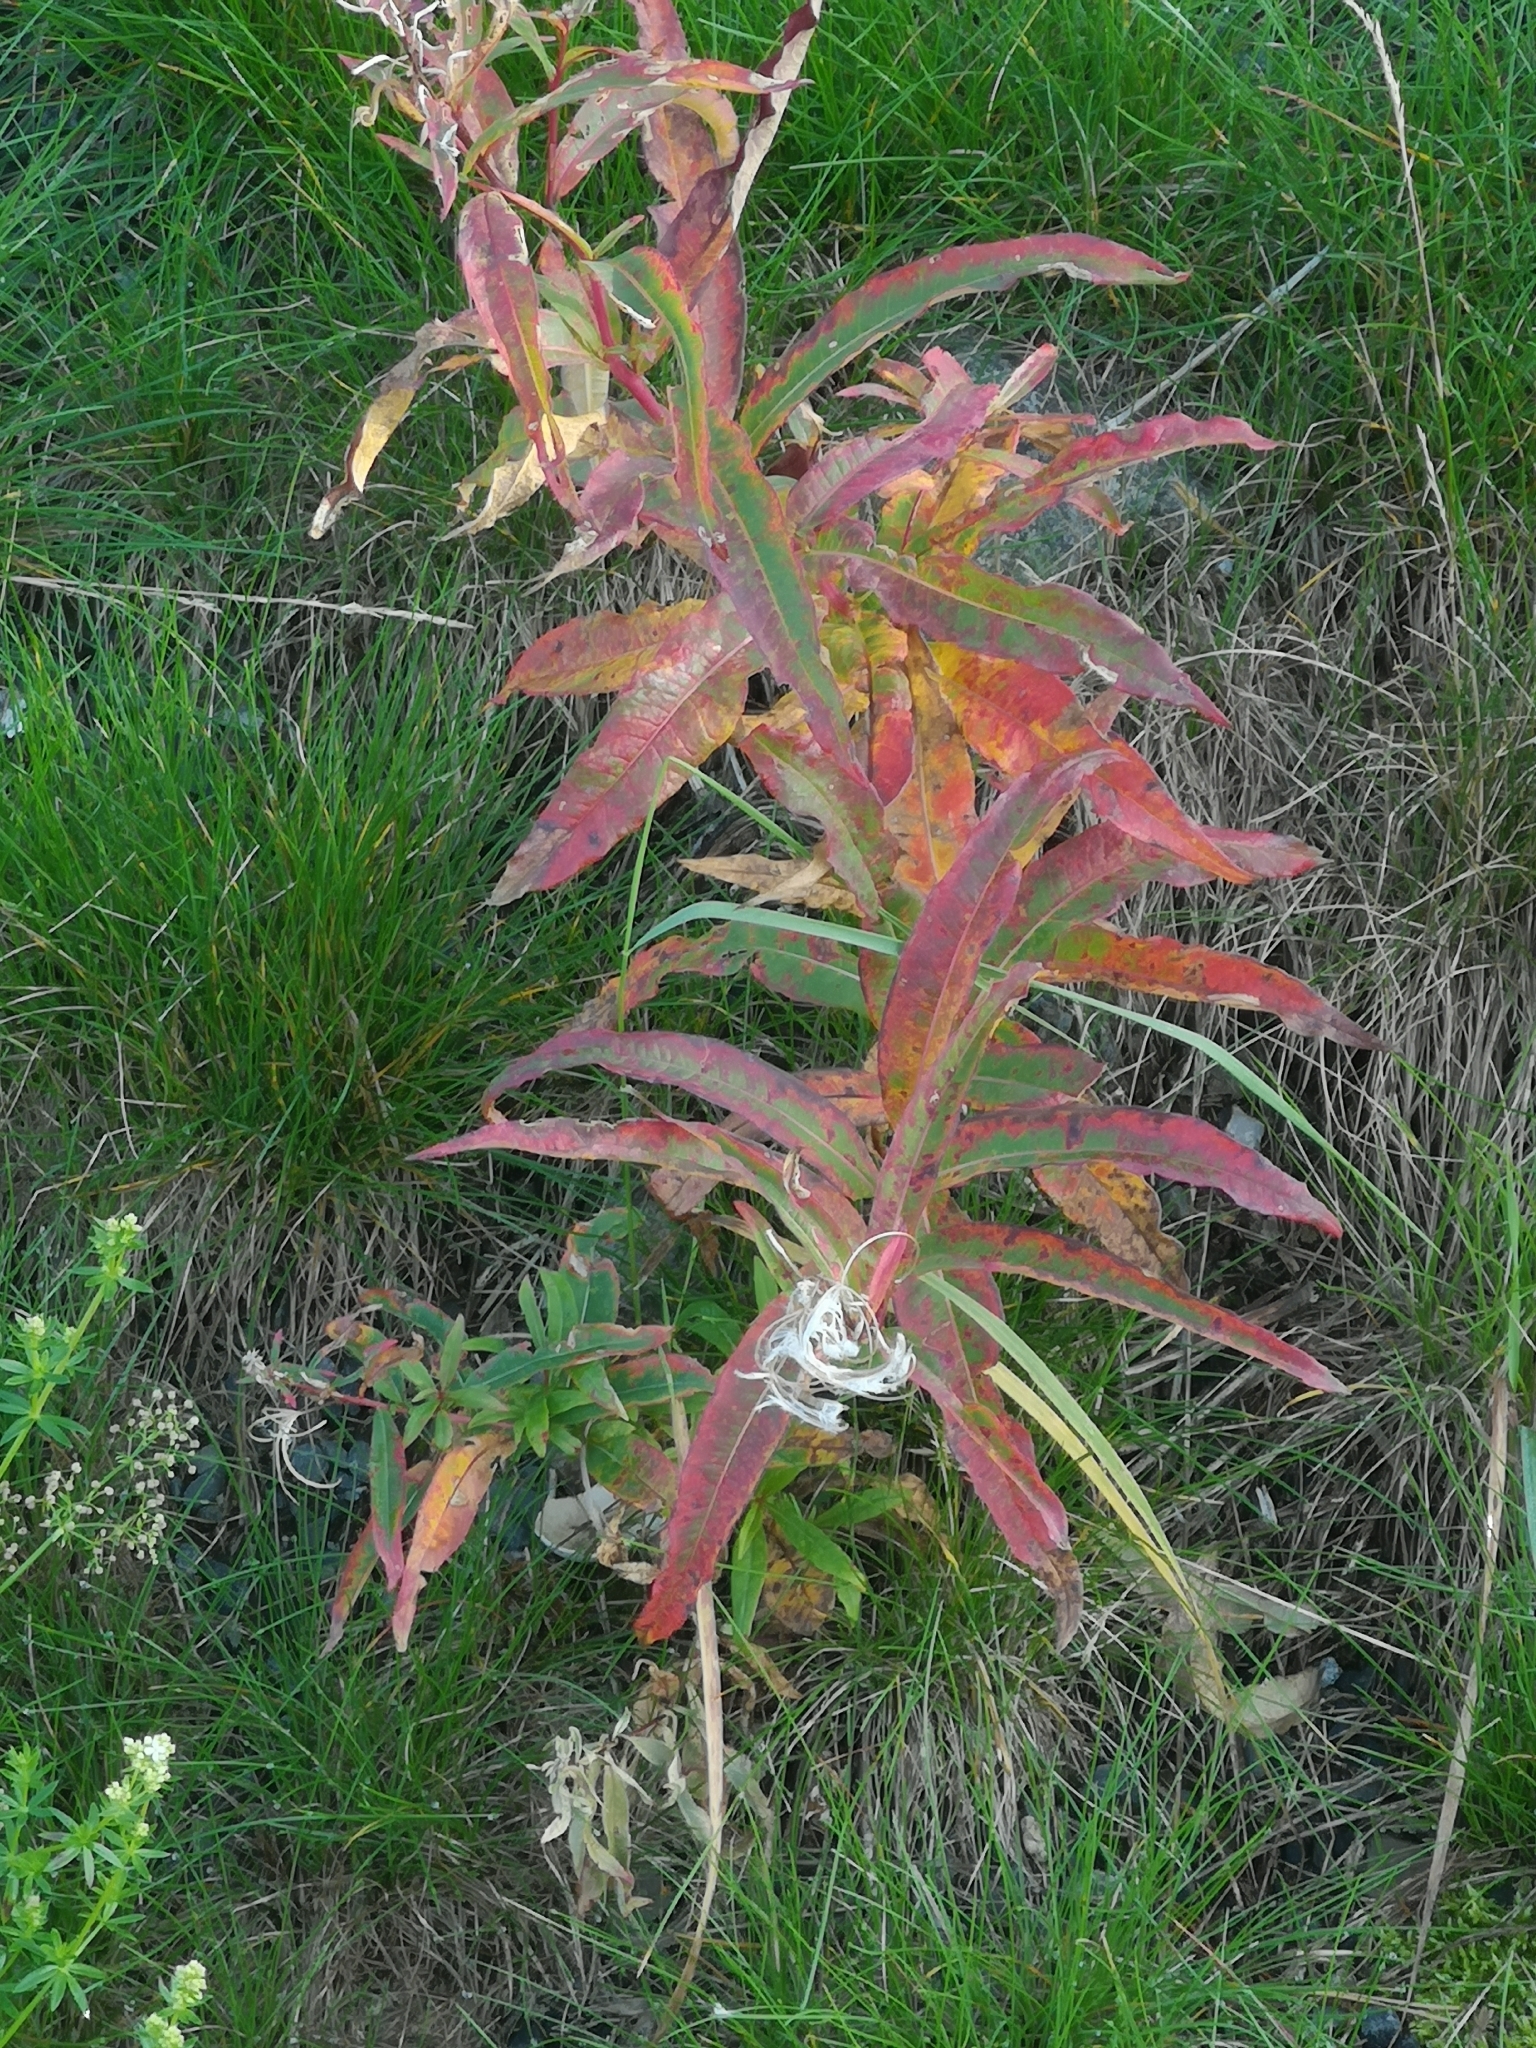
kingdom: Plantae
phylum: Tracheophyta
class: Magnoliopsida
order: Myrtales
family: Onagraceae
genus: Chamaenerion
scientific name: Chamaenerion angustifolium
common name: Fireweed
